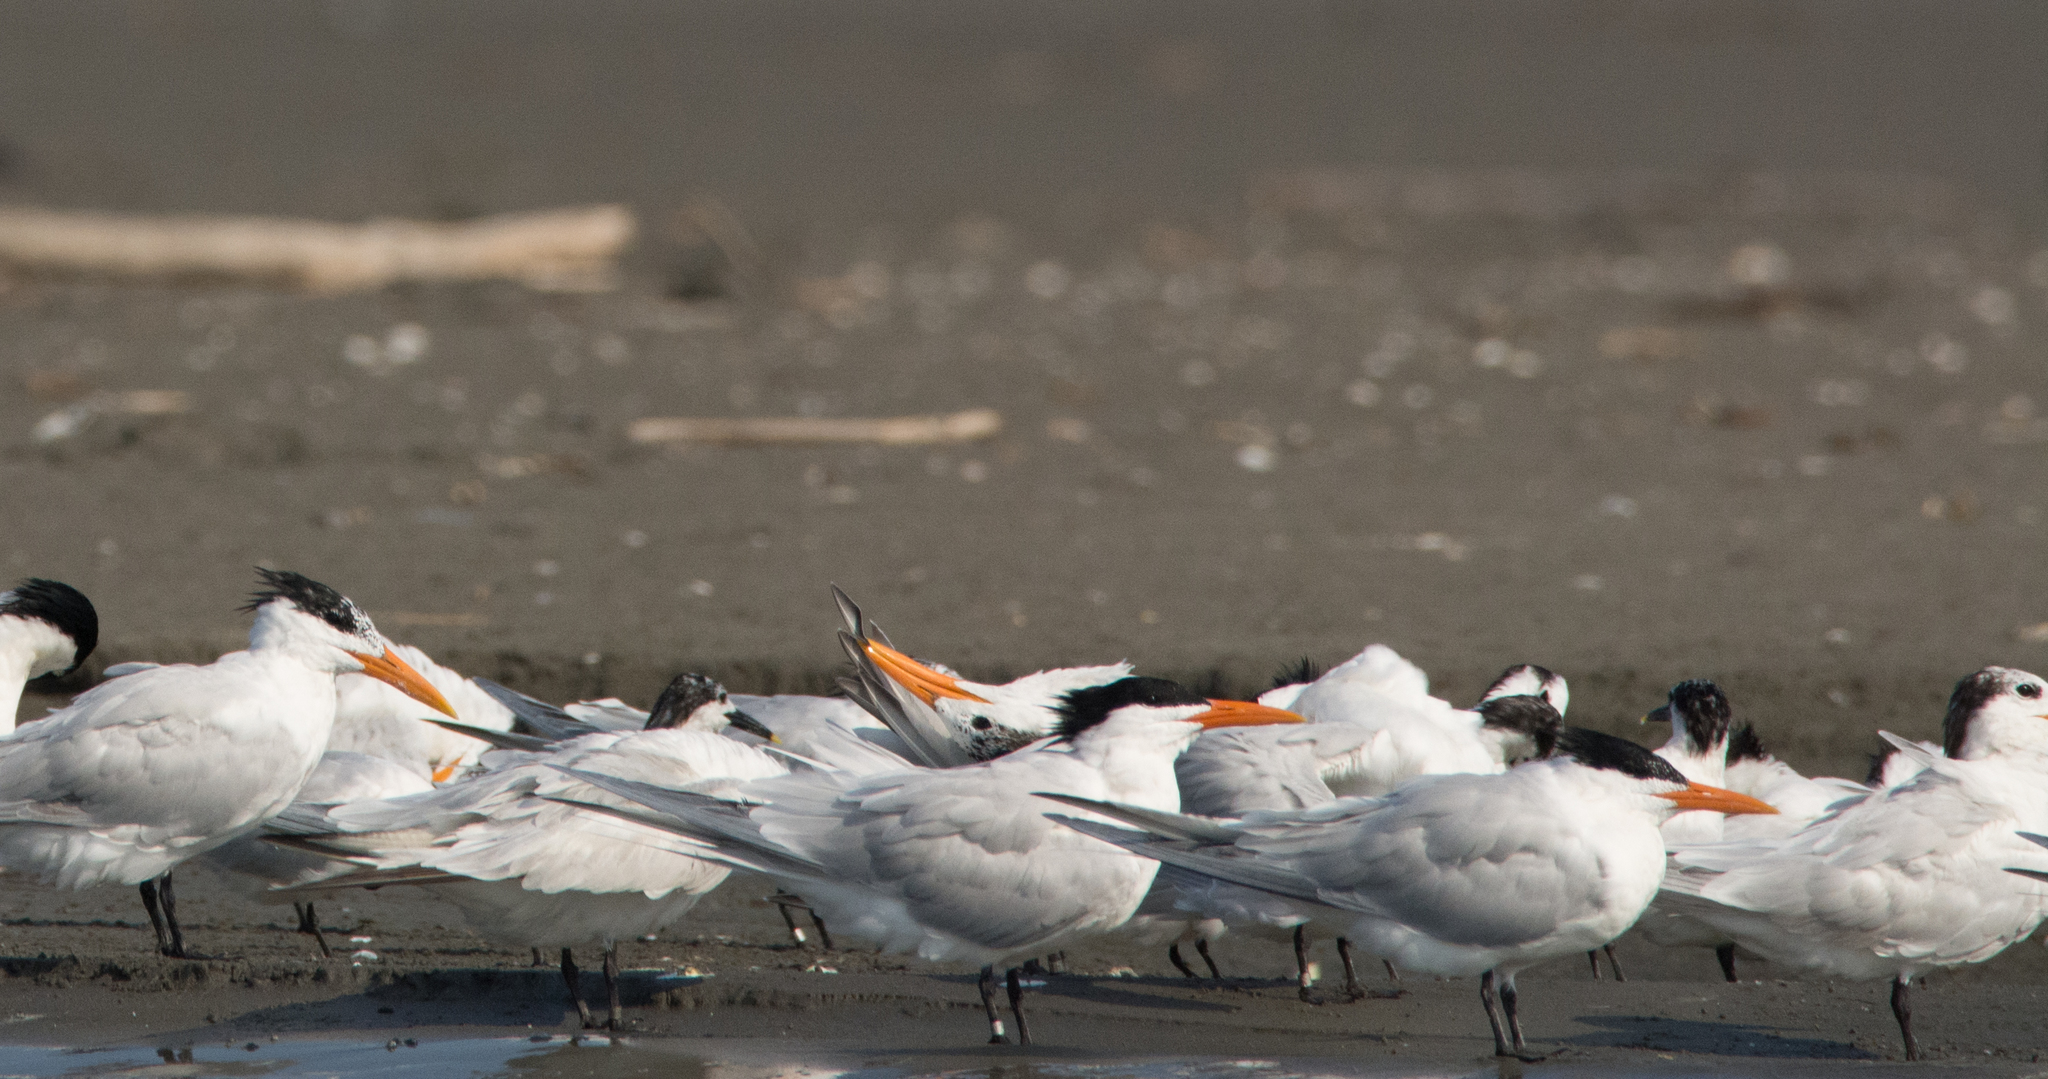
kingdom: Animalia
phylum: Chordata
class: Aves
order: Charadriiformes
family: Laridae
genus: Thalasseus
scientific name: Thalasseus maximus
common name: Royal tern
